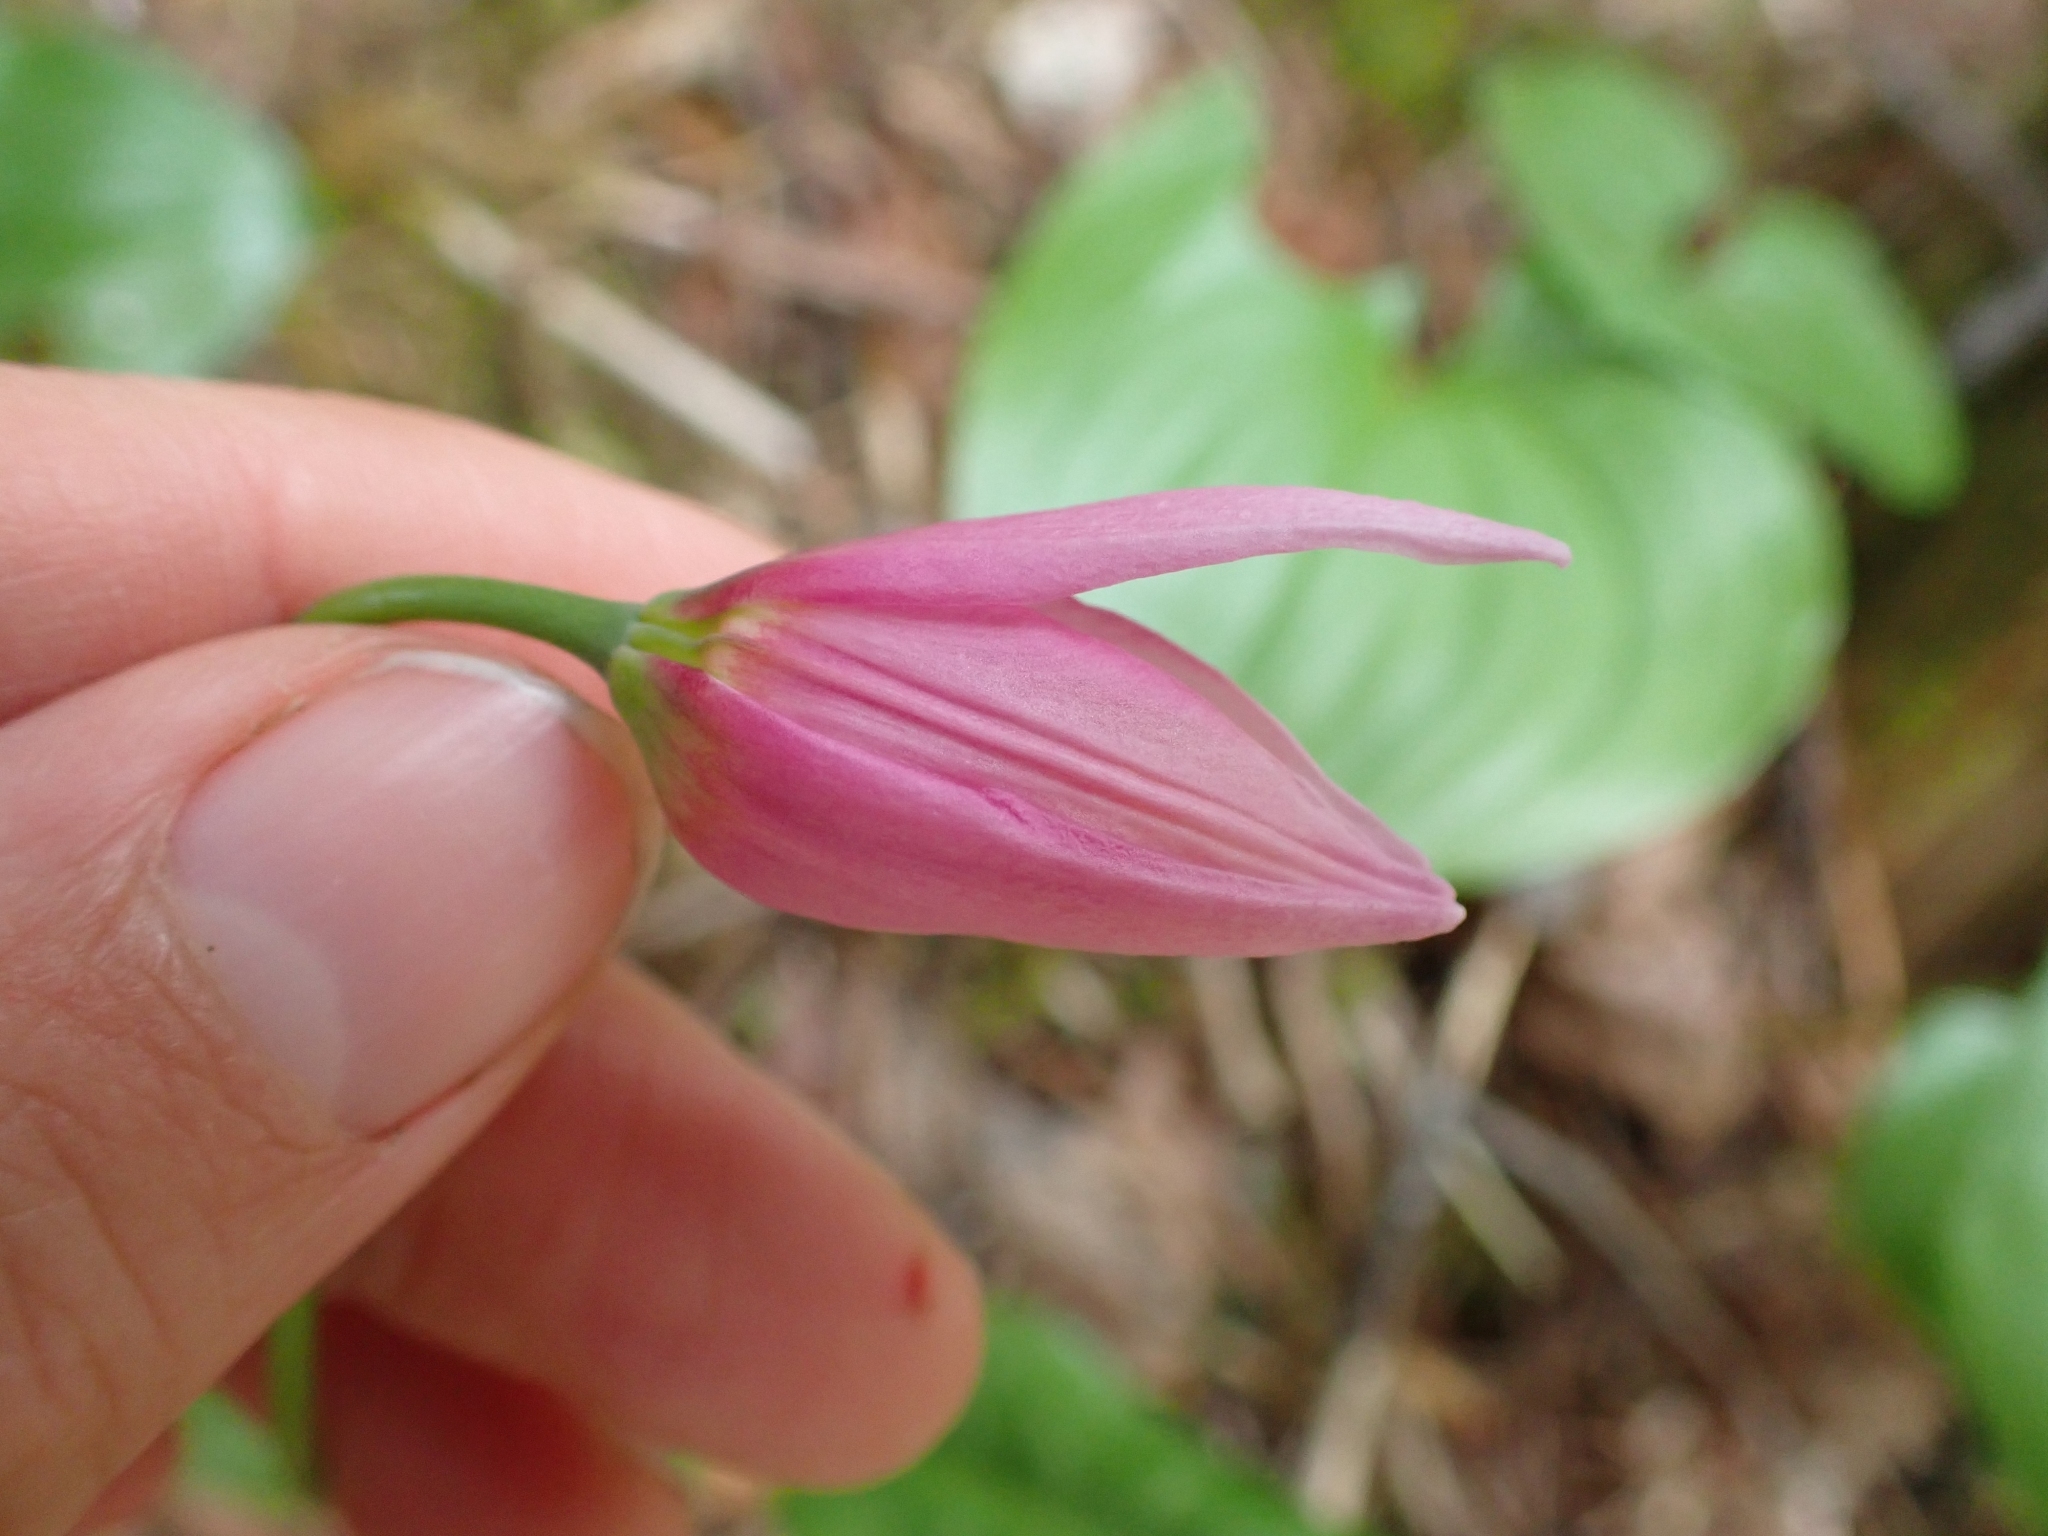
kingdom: Plantae
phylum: Tracheophyta
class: Liliopsida
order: Liliales
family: Liliaceae
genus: Erythronium
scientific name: Erythronium revolutum
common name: Pink fawn-lily
